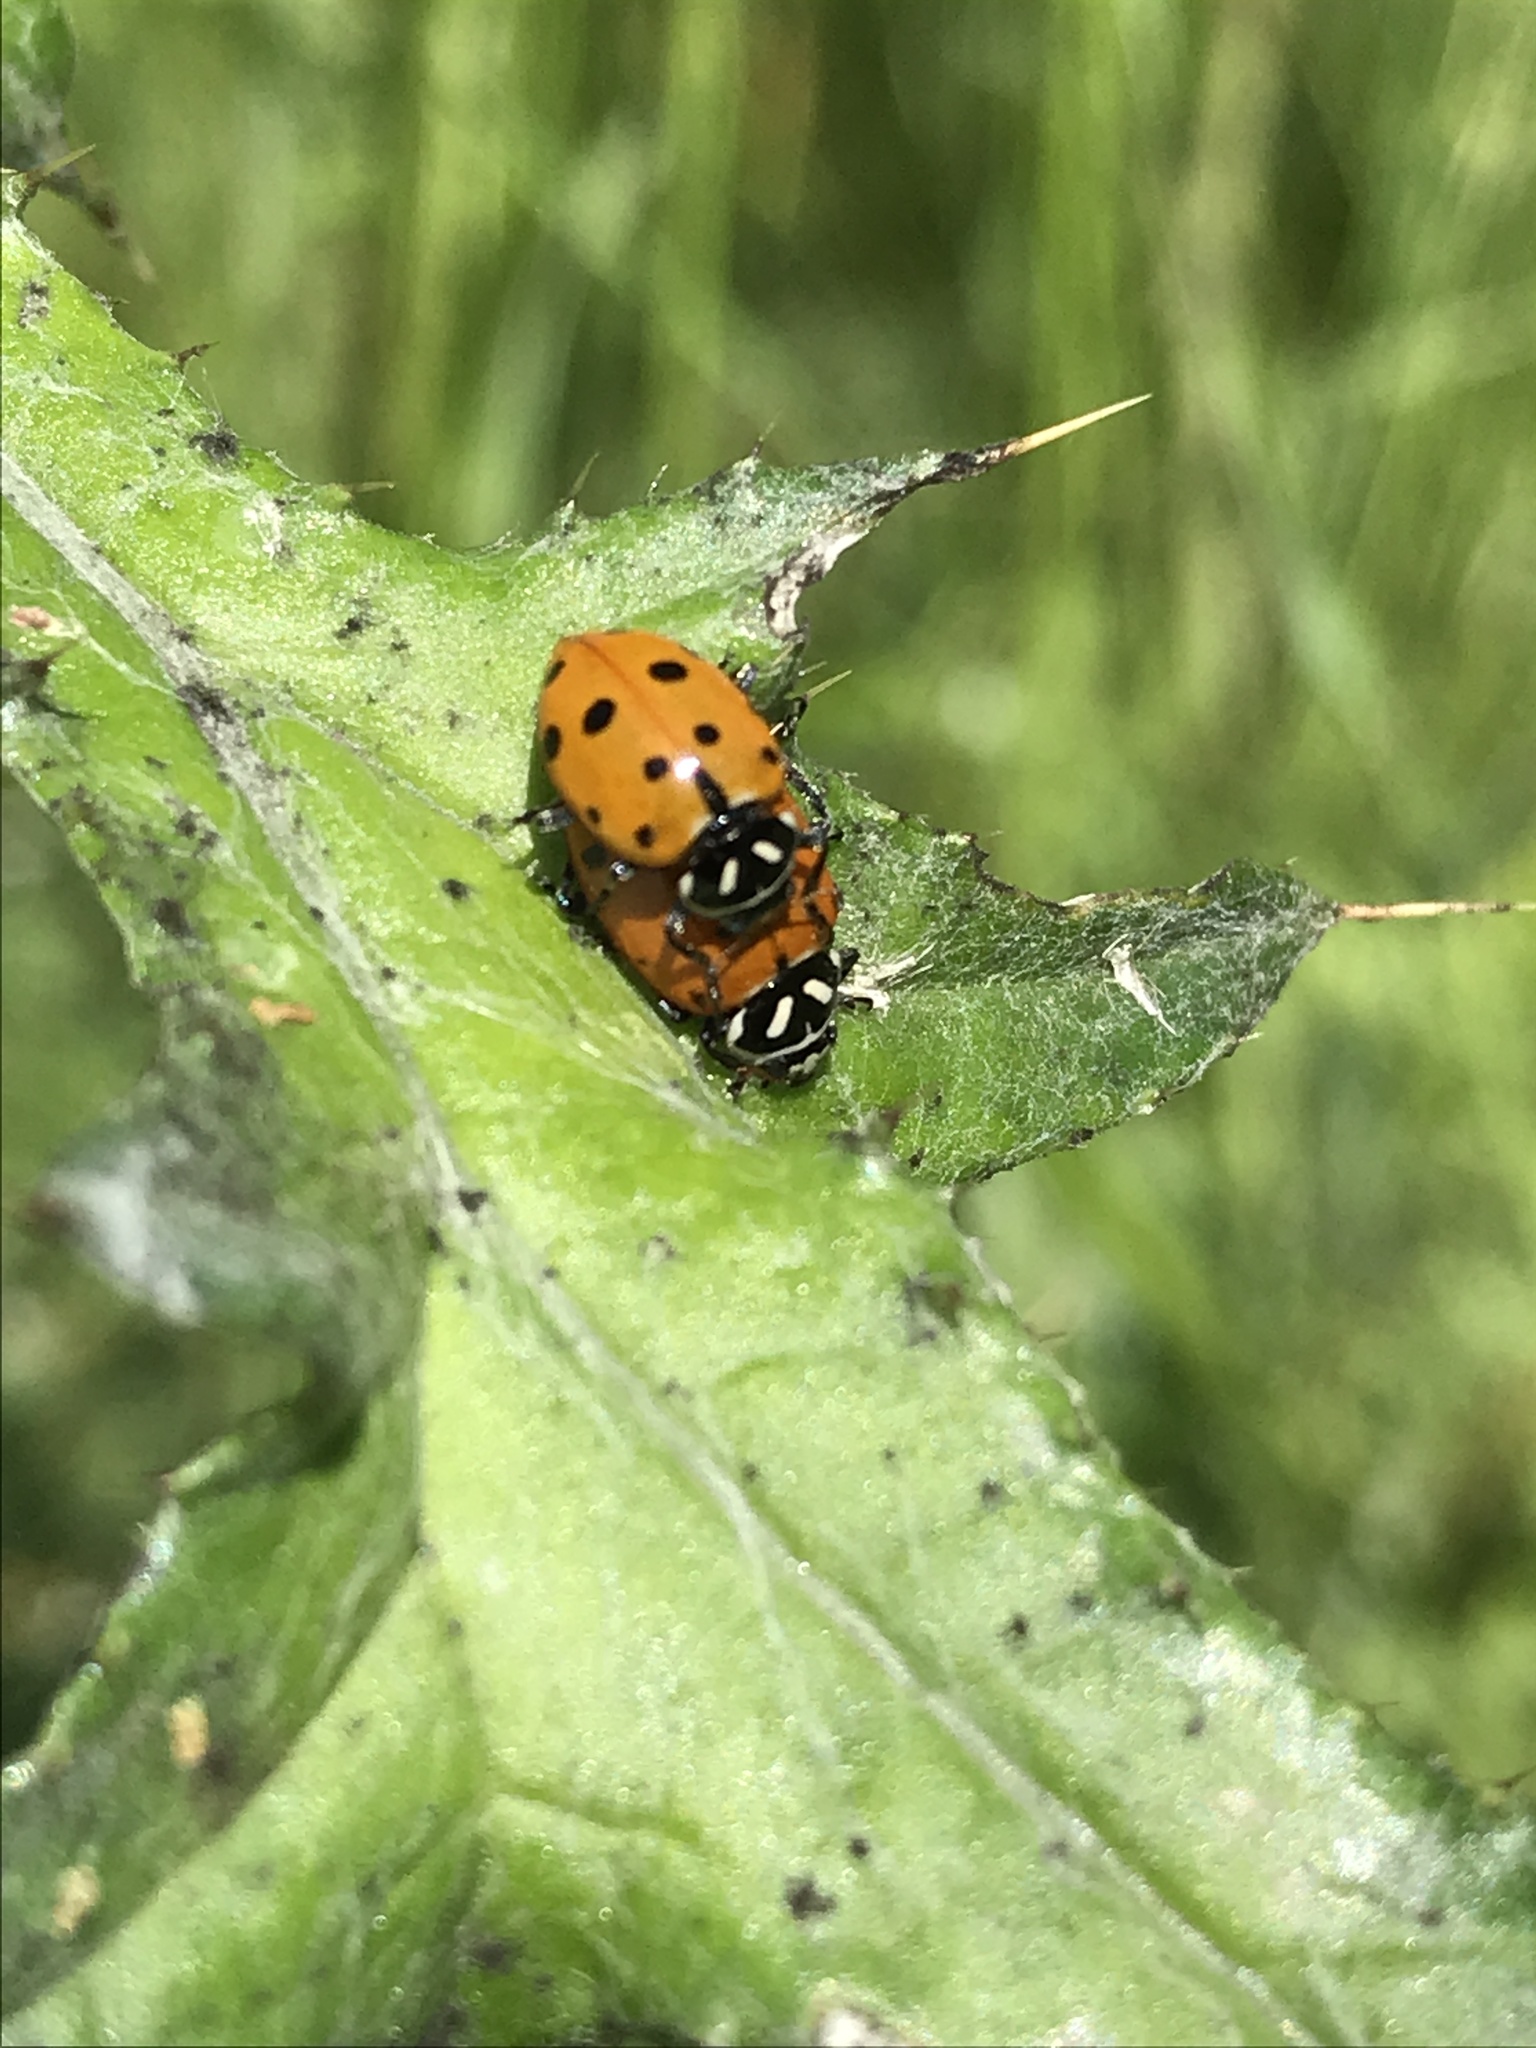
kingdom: Animalia
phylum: Arthropoda
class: Insecta
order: Coleoptera
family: Coccinellidae
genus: Hippodamia
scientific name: Hippodamia convergens
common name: Convergent lady beetle
